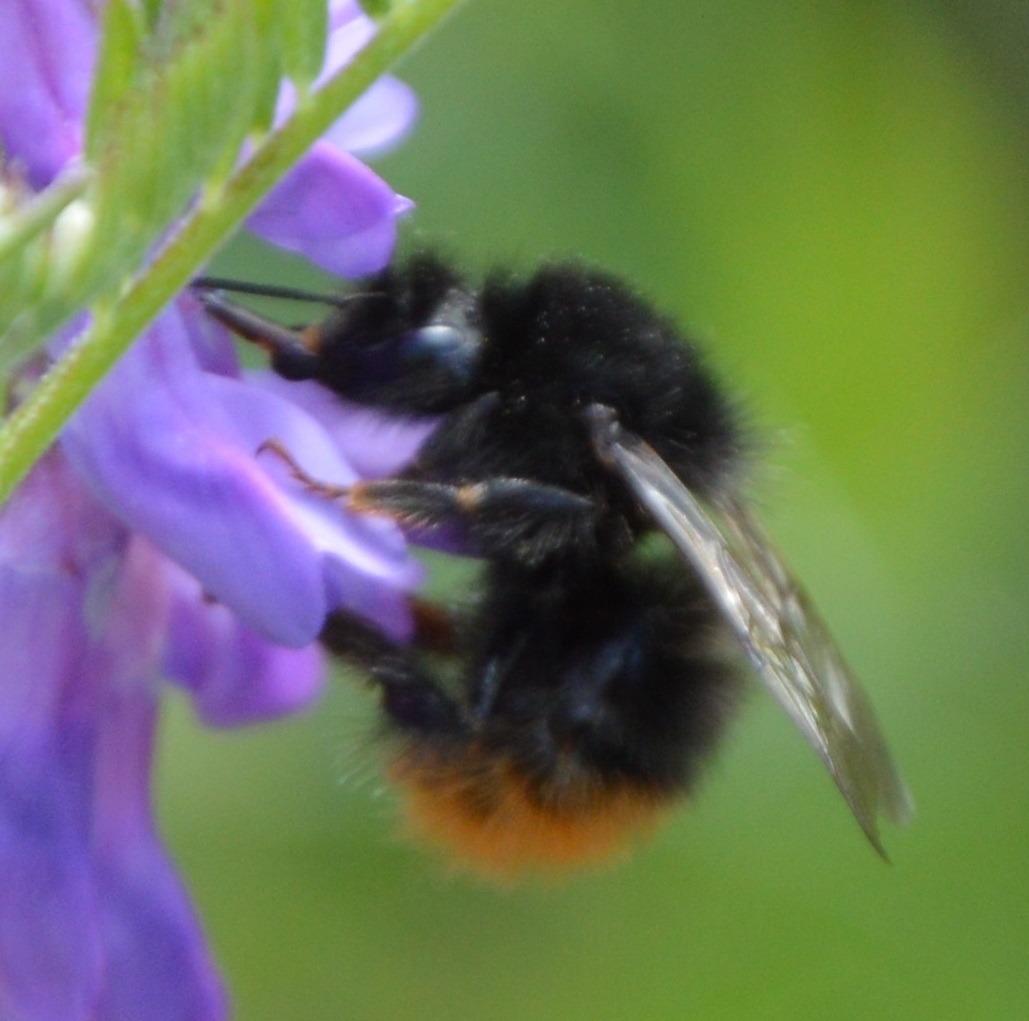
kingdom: Animalia
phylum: Arthropoda
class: Insecta
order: Hymenoptera
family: Apidae
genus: Bombus
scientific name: Bombus wurflenii
